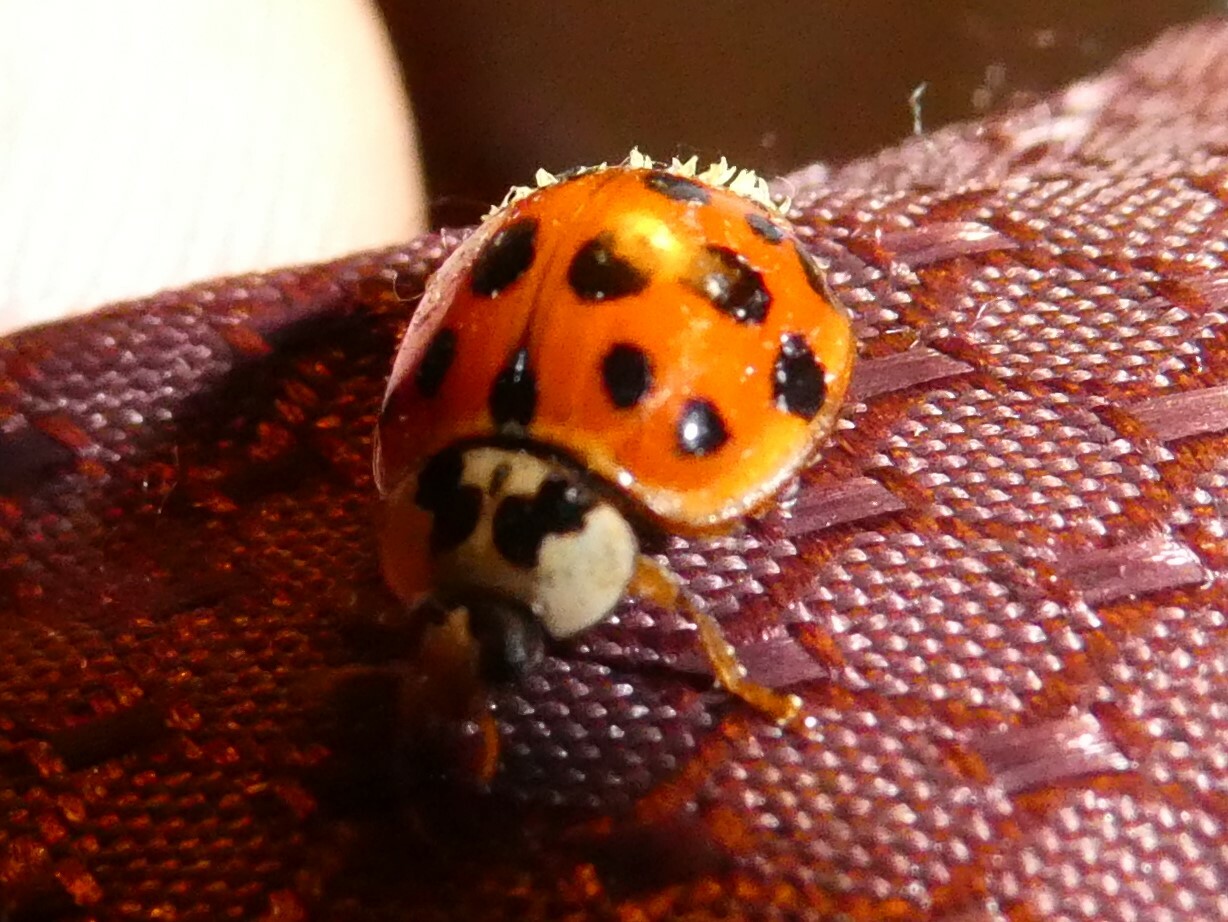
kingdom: Fungi
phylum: Ascomycota
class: Laboulbeniomycetes
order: Laboulbeniales
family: Laboulbeniaceae
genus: Hesperomyces
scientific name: Hesperomyces harmoniae
